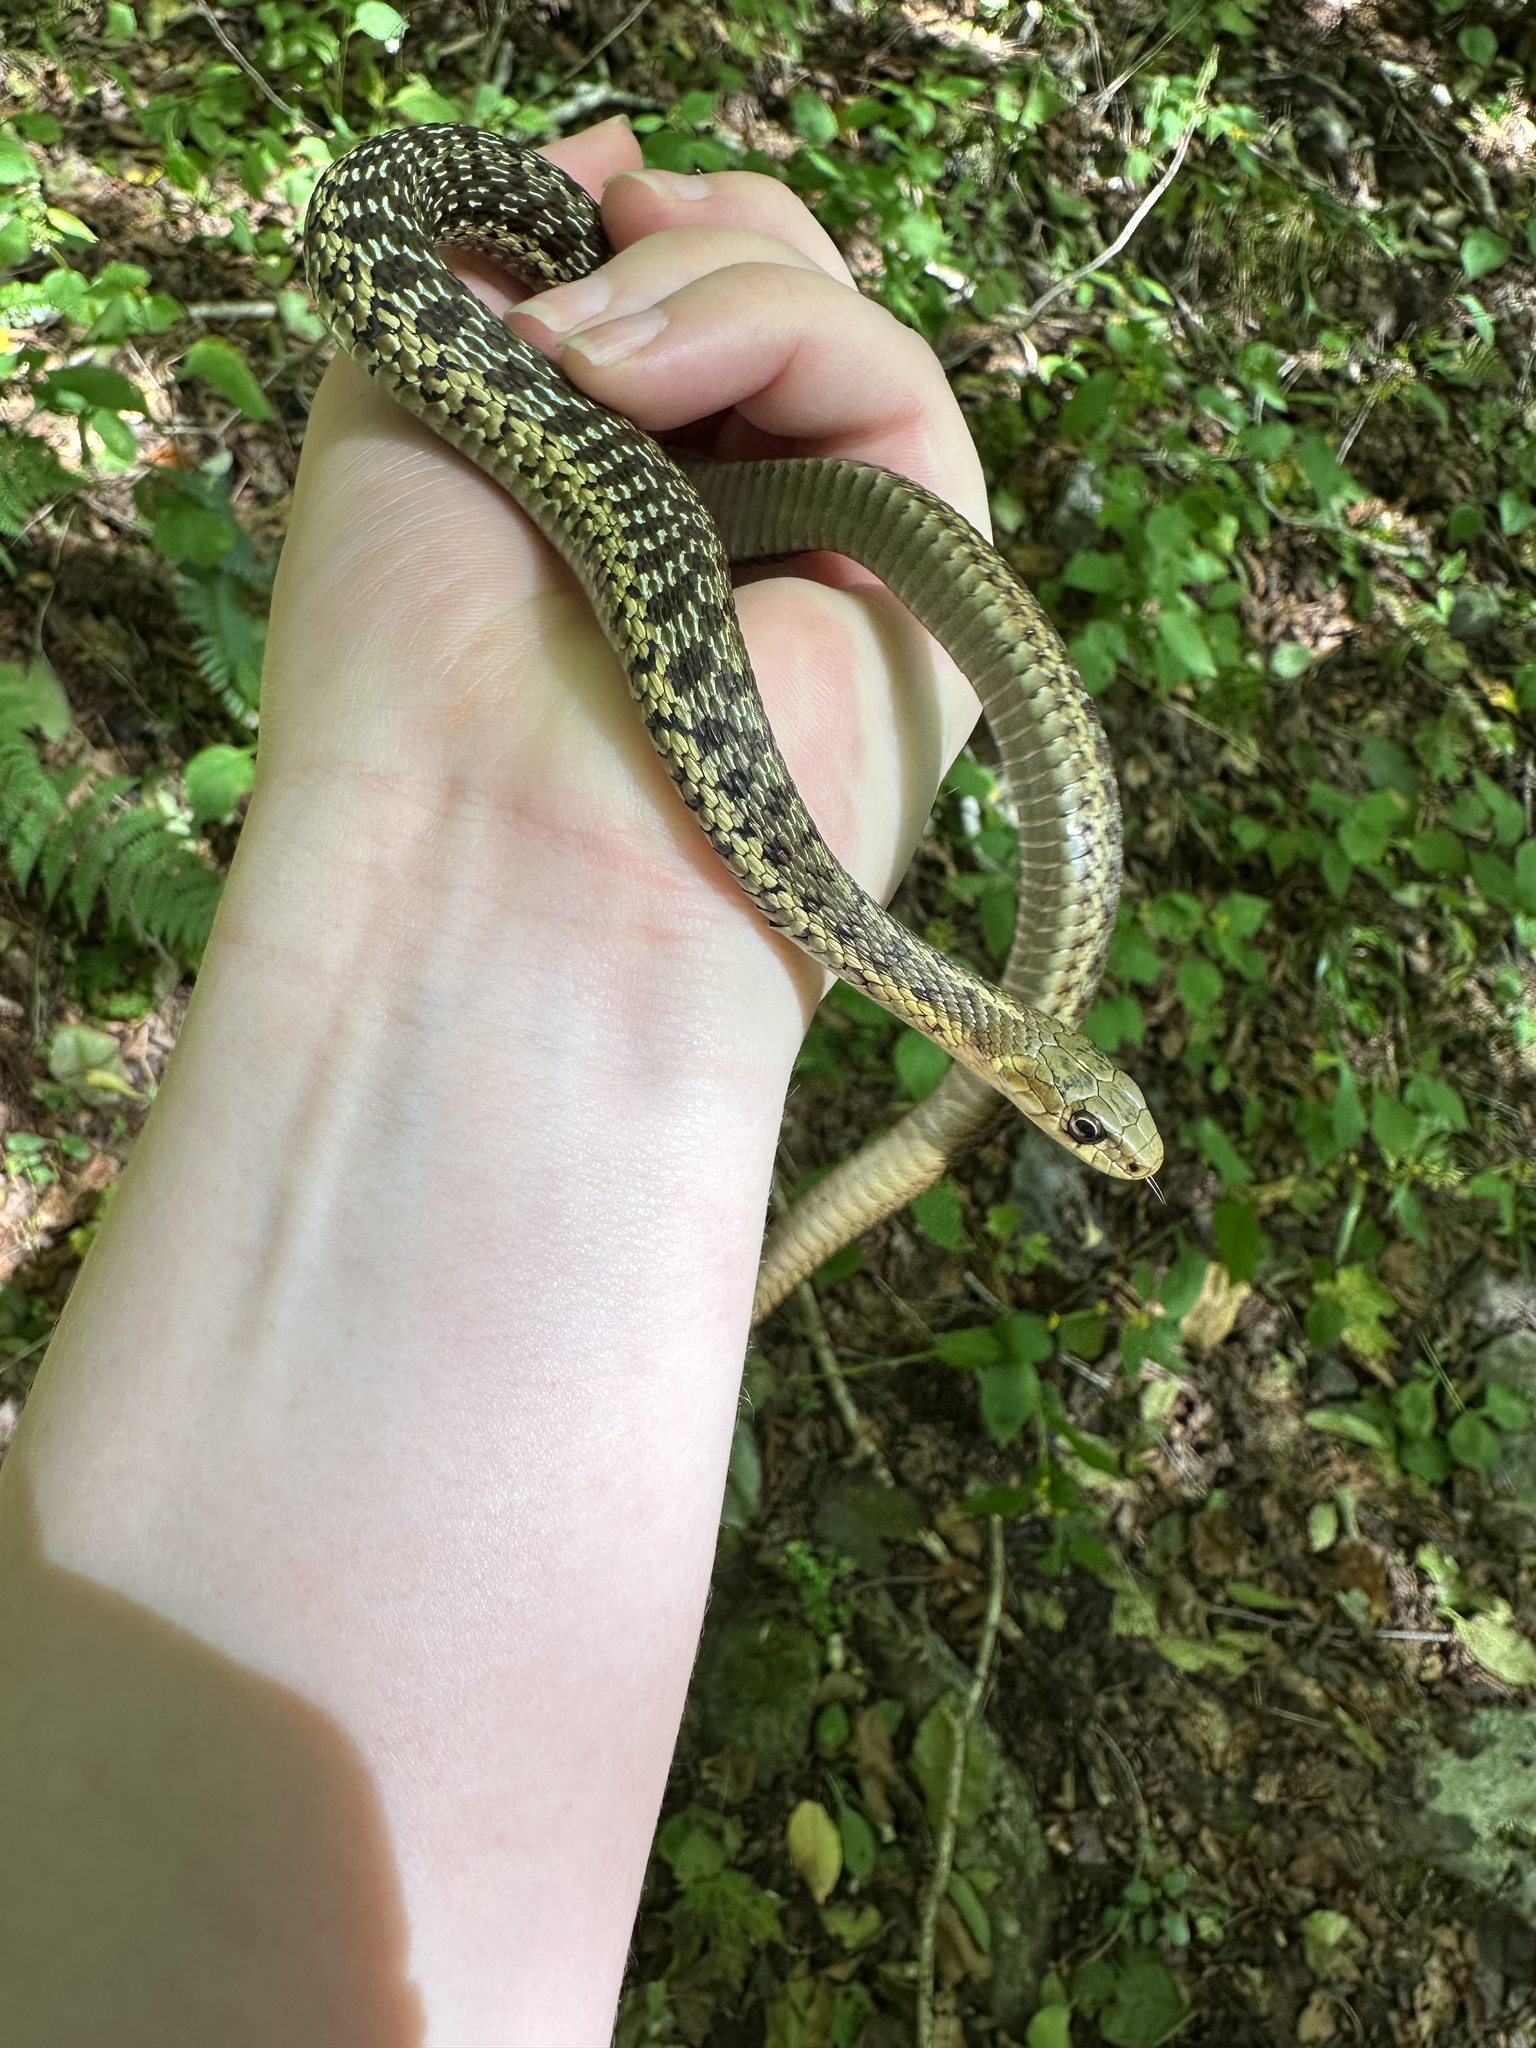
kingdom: Animalia
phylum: Chordata
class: Squamata
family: Colubridae
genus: Thamnophis
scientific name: Thamnophis sirtalis
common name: Common garter snake
